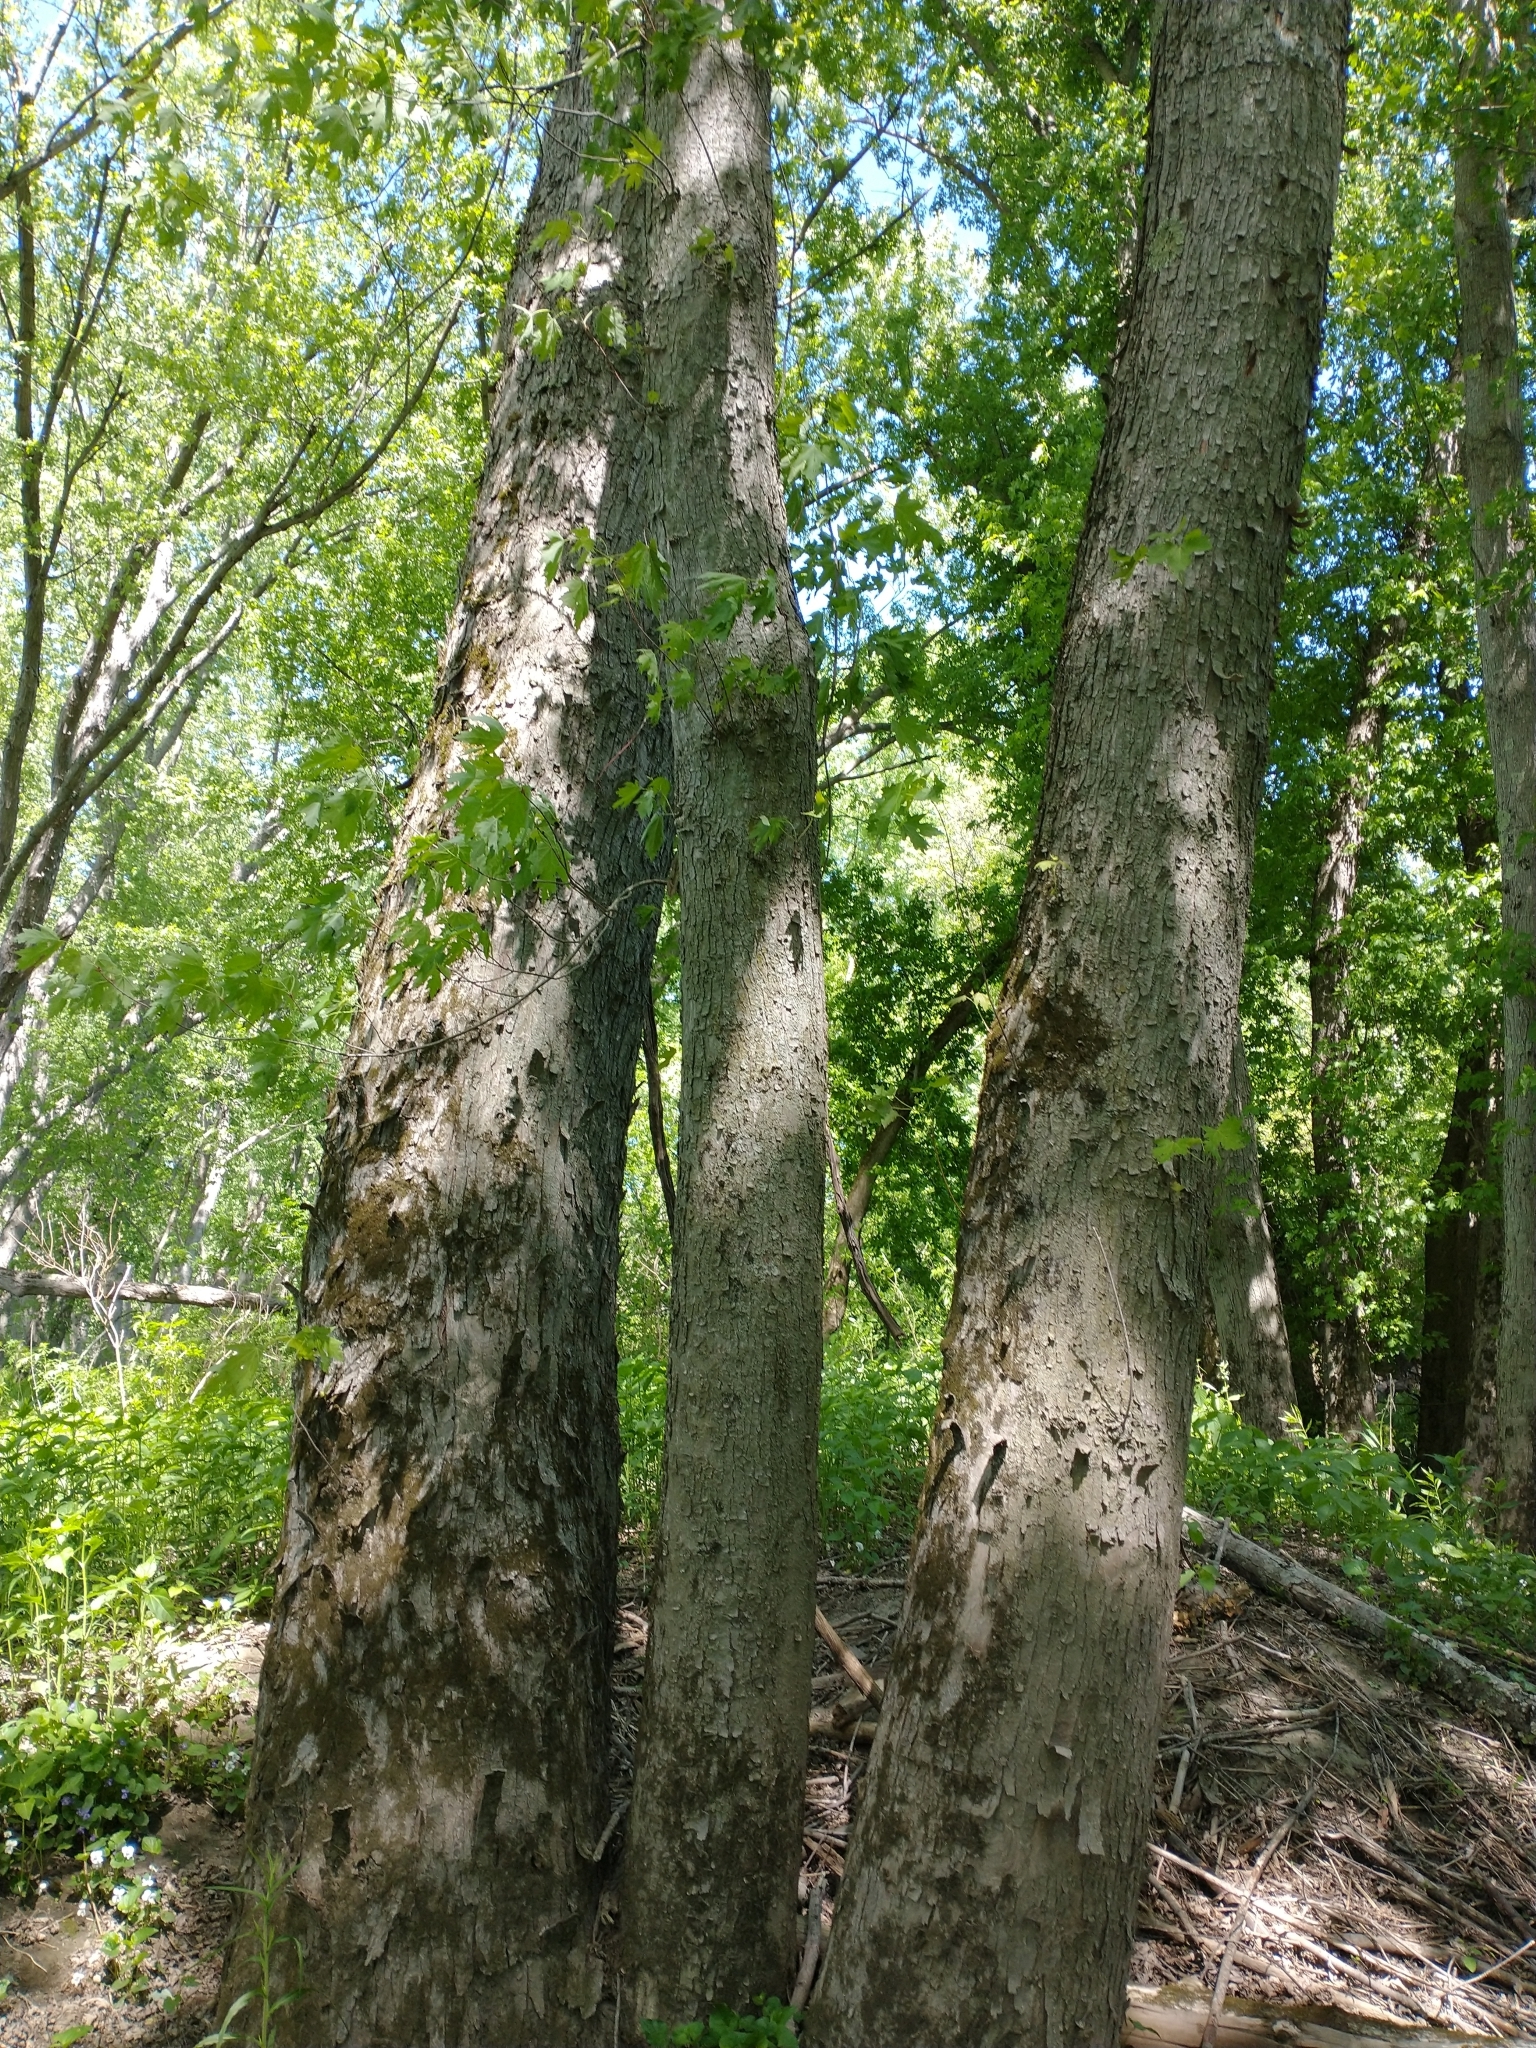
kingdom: Plantae
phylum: Tracheophyta
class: Magnoliopsida
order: Sapindales
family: Sapindaceae
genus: Acer
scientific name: Acer saccharinum
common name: Silver maple
